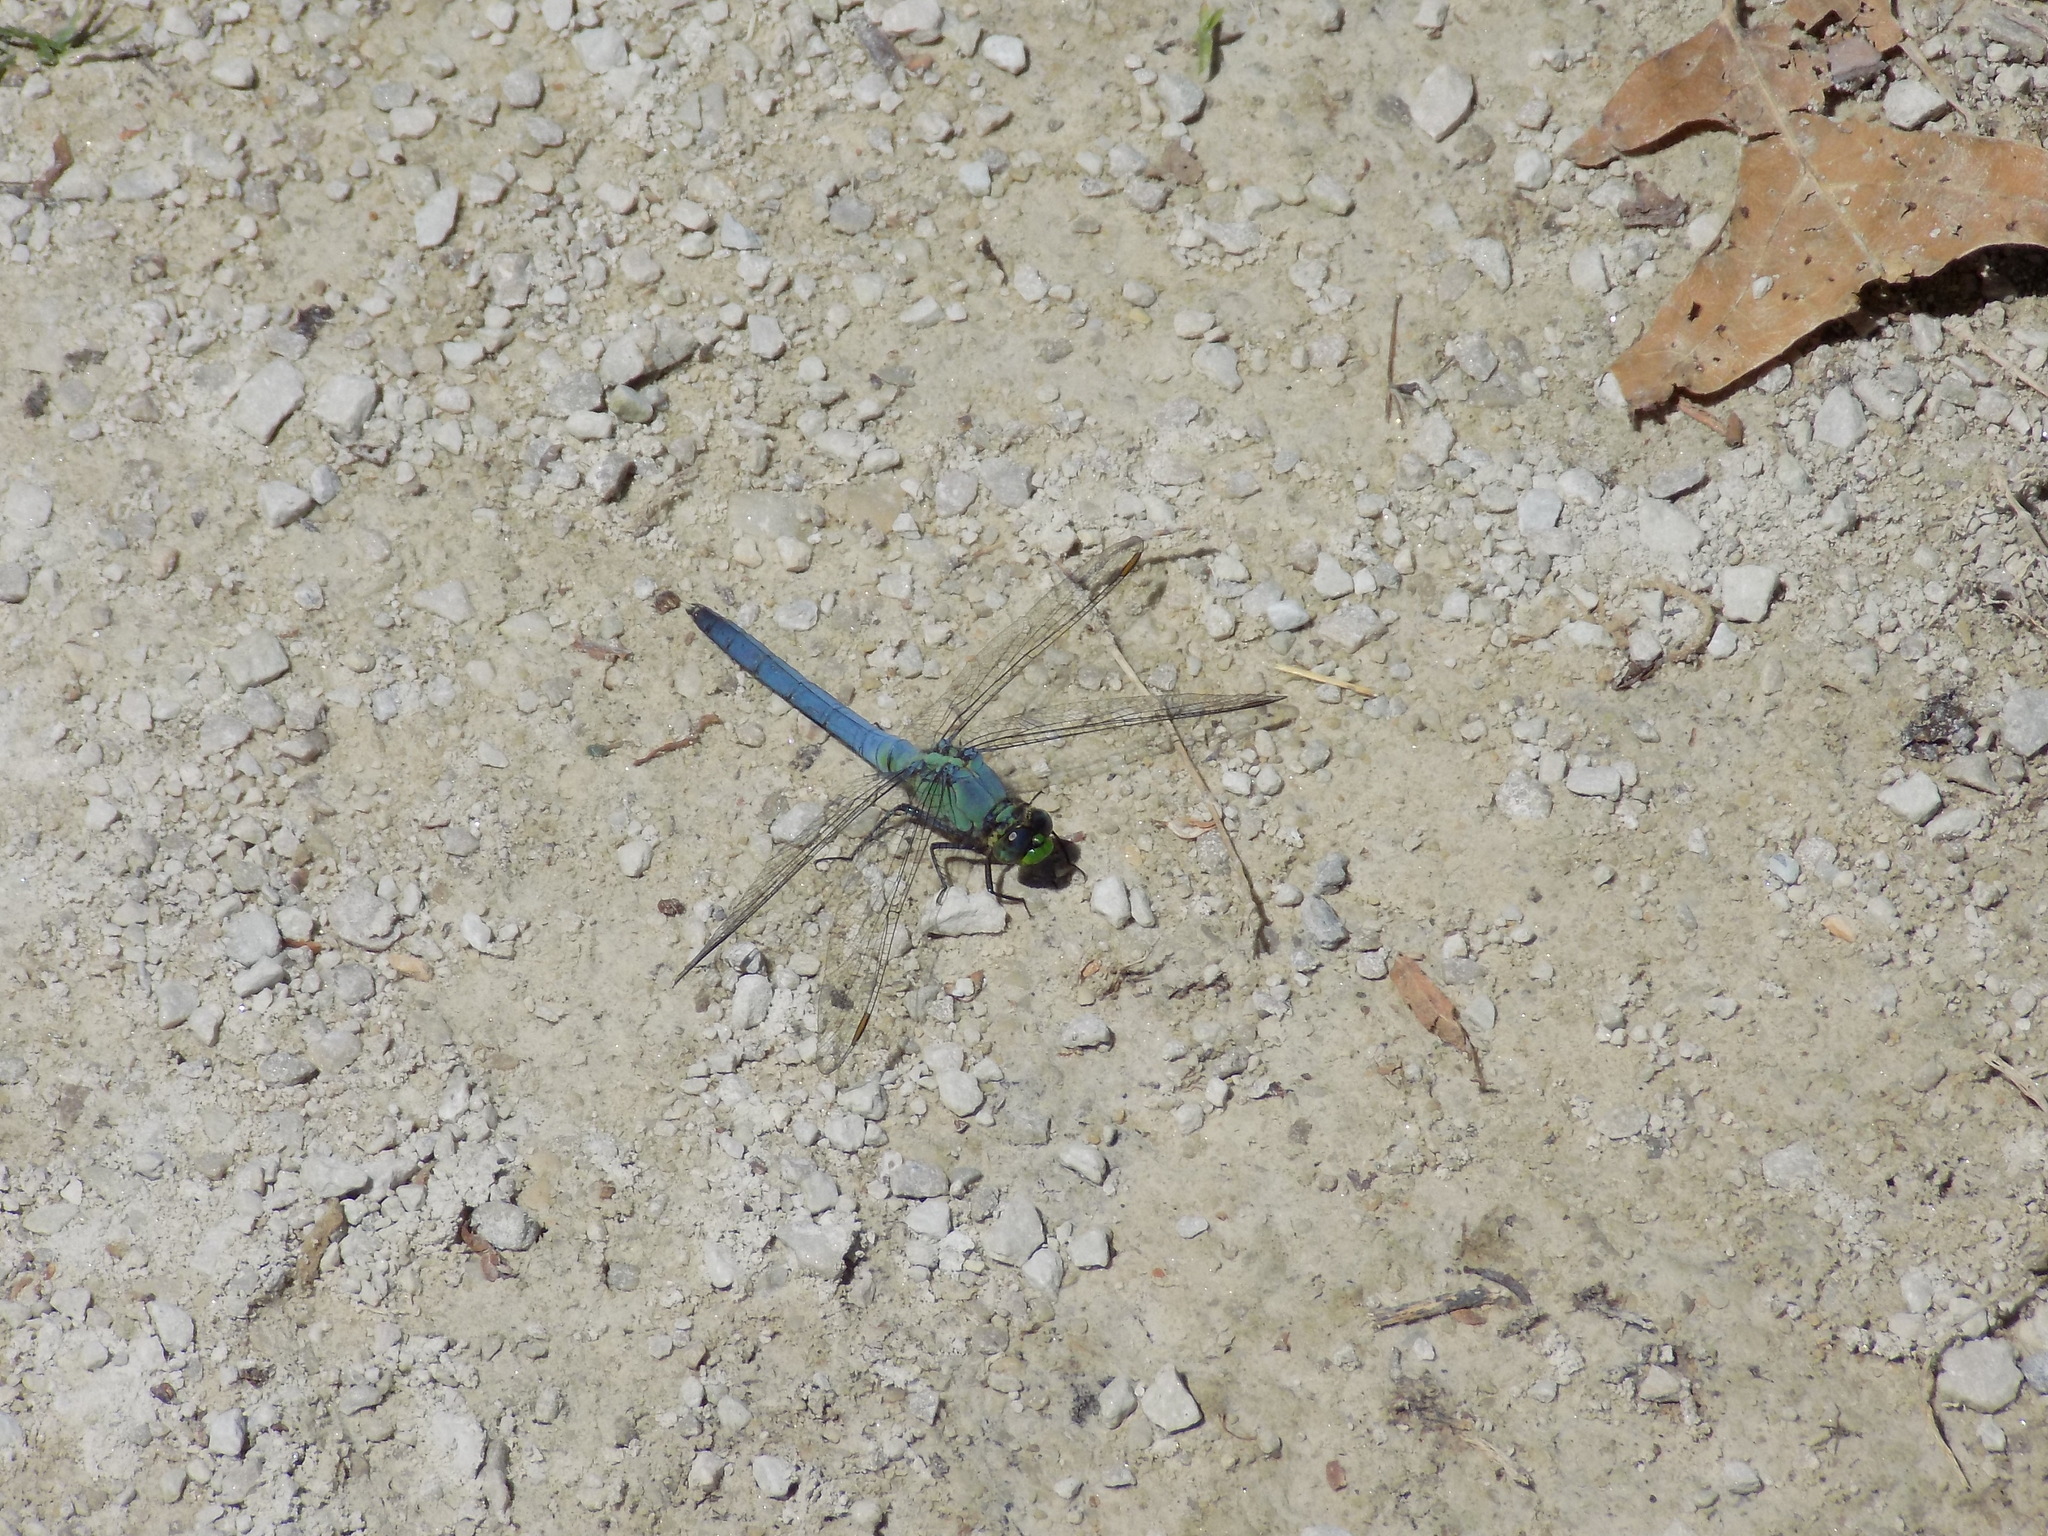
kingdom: Animalia
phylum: Arthropoda
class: Insecta
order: Odonata
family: Libellulidae
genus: Erythemis
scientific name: Erythemis simplicicollis
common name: Eastern pondhawk
